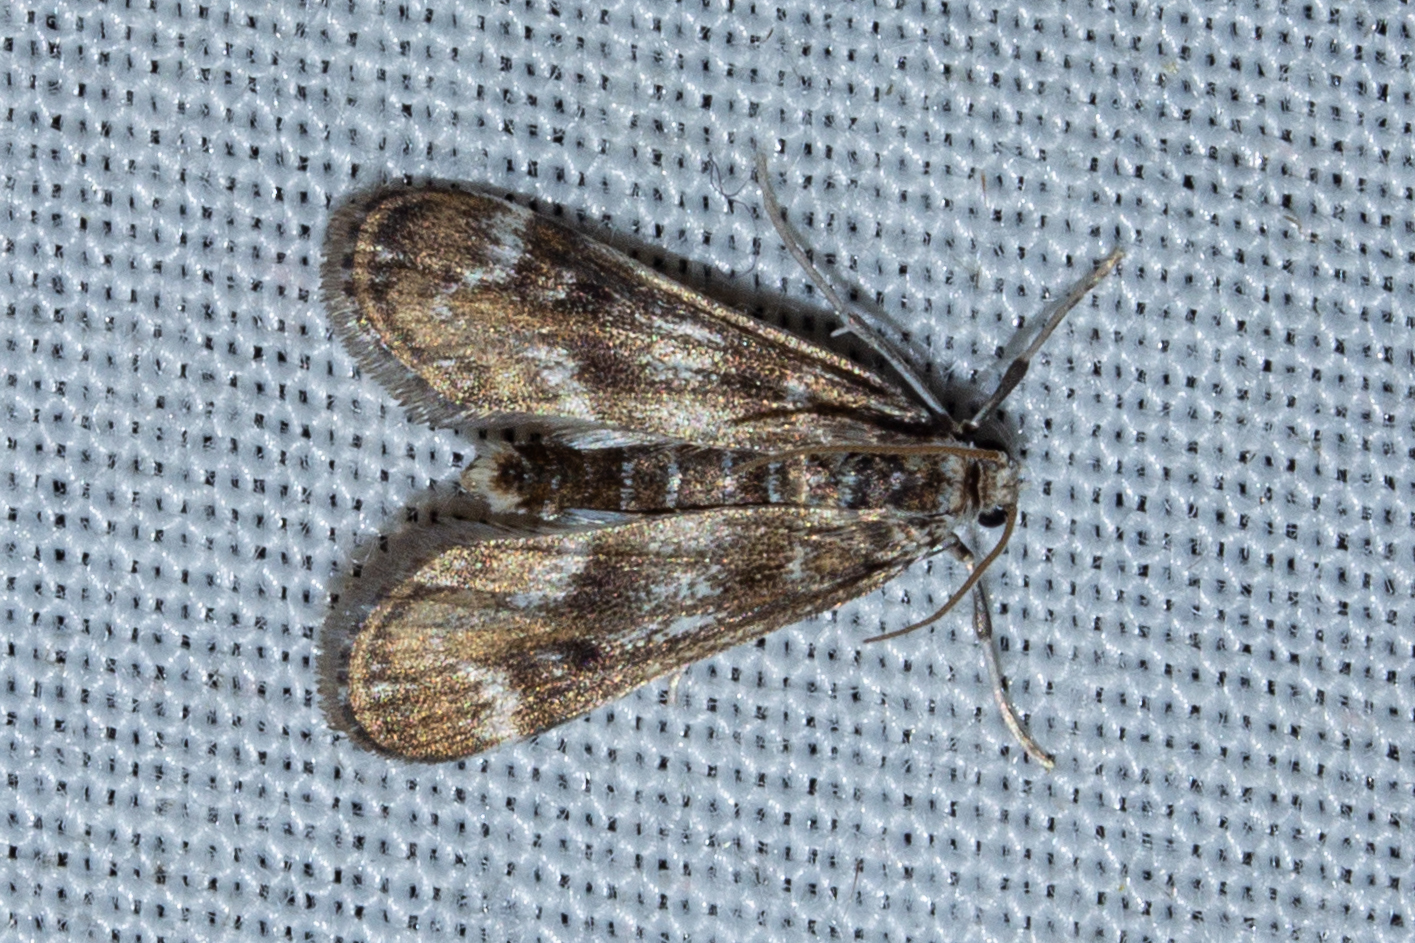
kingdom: Animalia
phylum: Arthropoda
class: Insecta
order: Lepidoptera
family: Crambidae
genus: Hygraula
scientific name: Hygraula nitens
